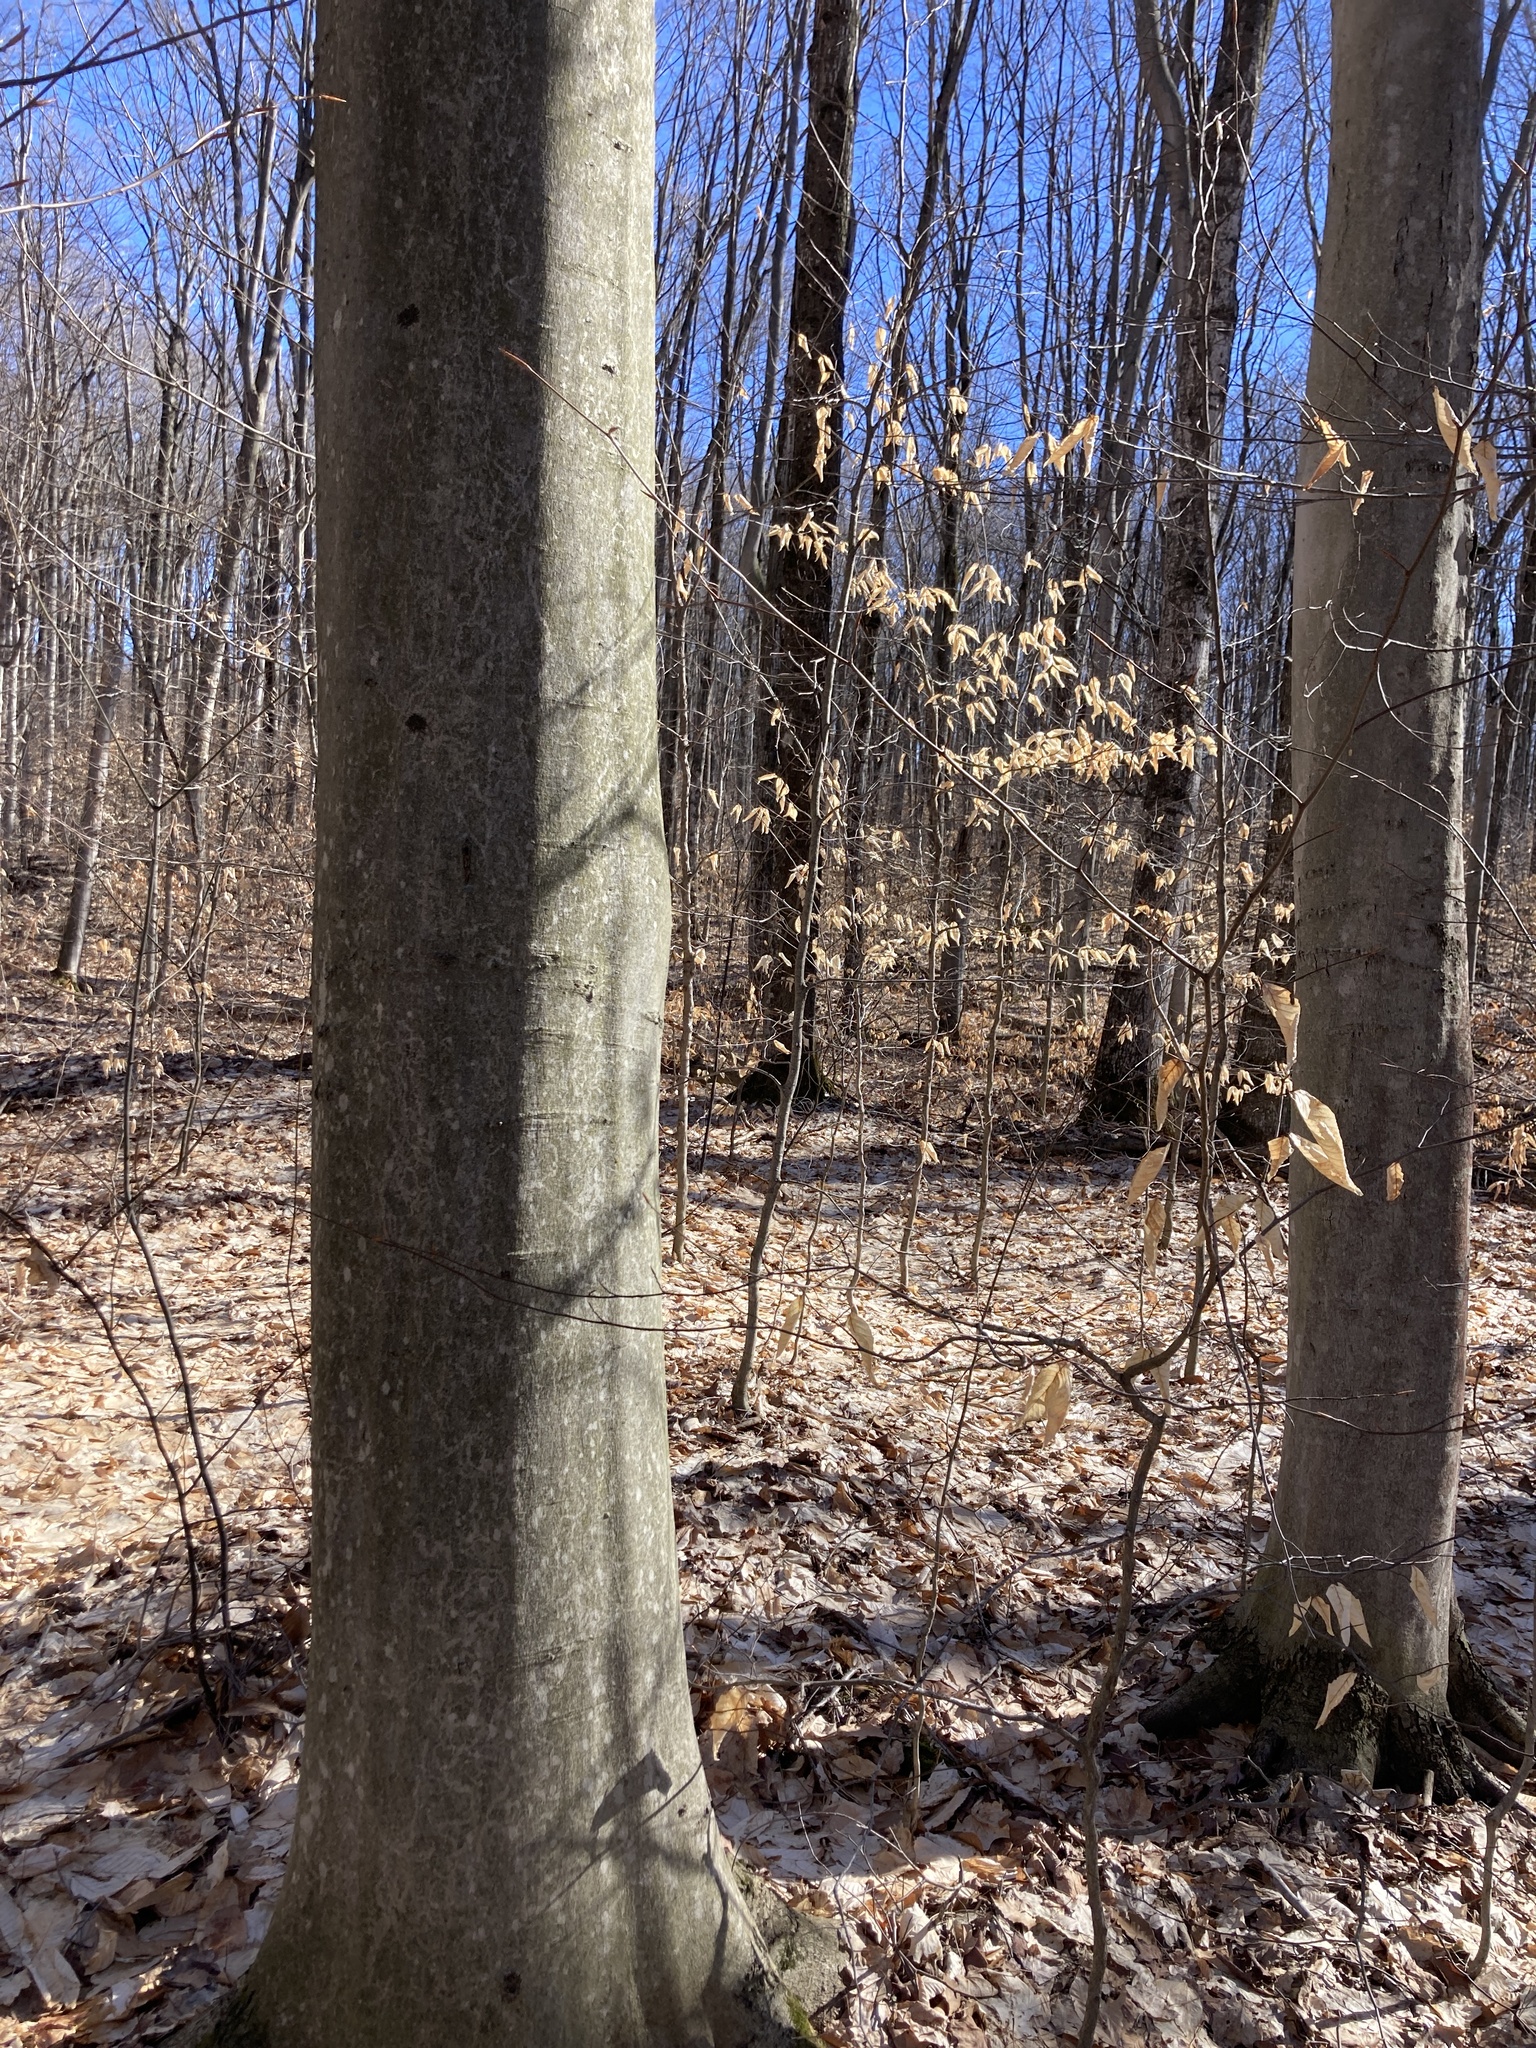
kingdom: Plantae
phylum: Tracheophyta
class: Magnoliopsida
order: Fagales
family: Fagaceae
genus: Fagus
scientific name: Fagus grandifolia
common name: American beech
